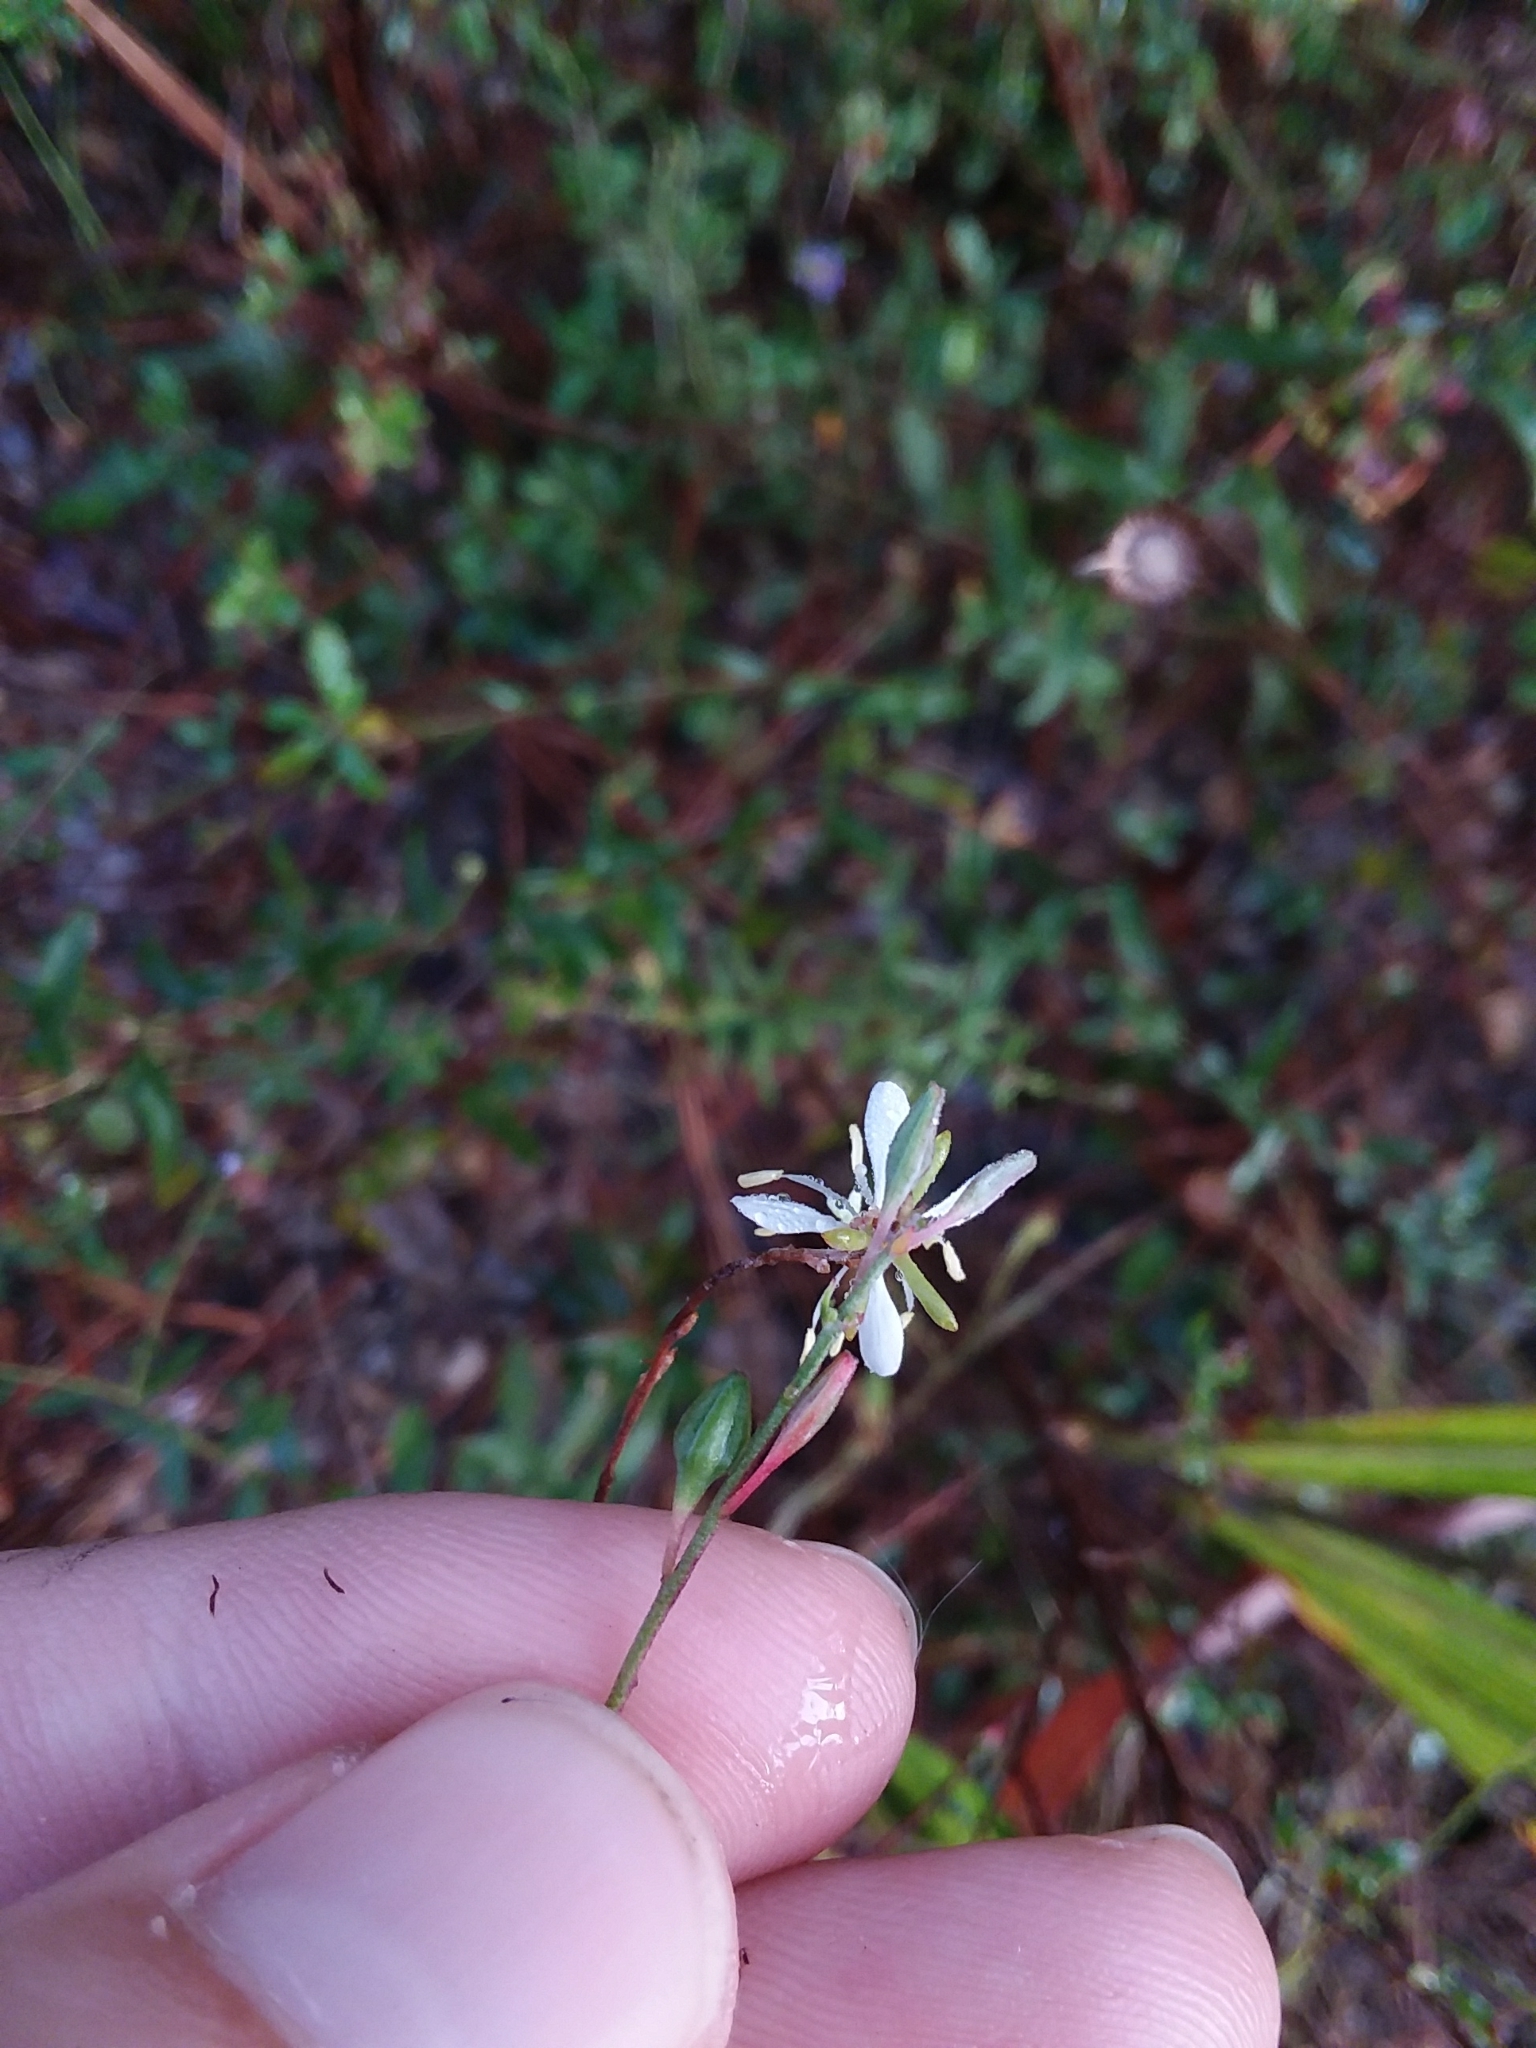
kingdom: Plantae
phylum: Tracheophyta
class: Magnoliopsida
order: Myrtales
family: Onagraceae
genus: Oenothera
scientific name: Oenothera filipes
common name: Slenderstalk beeblossom
